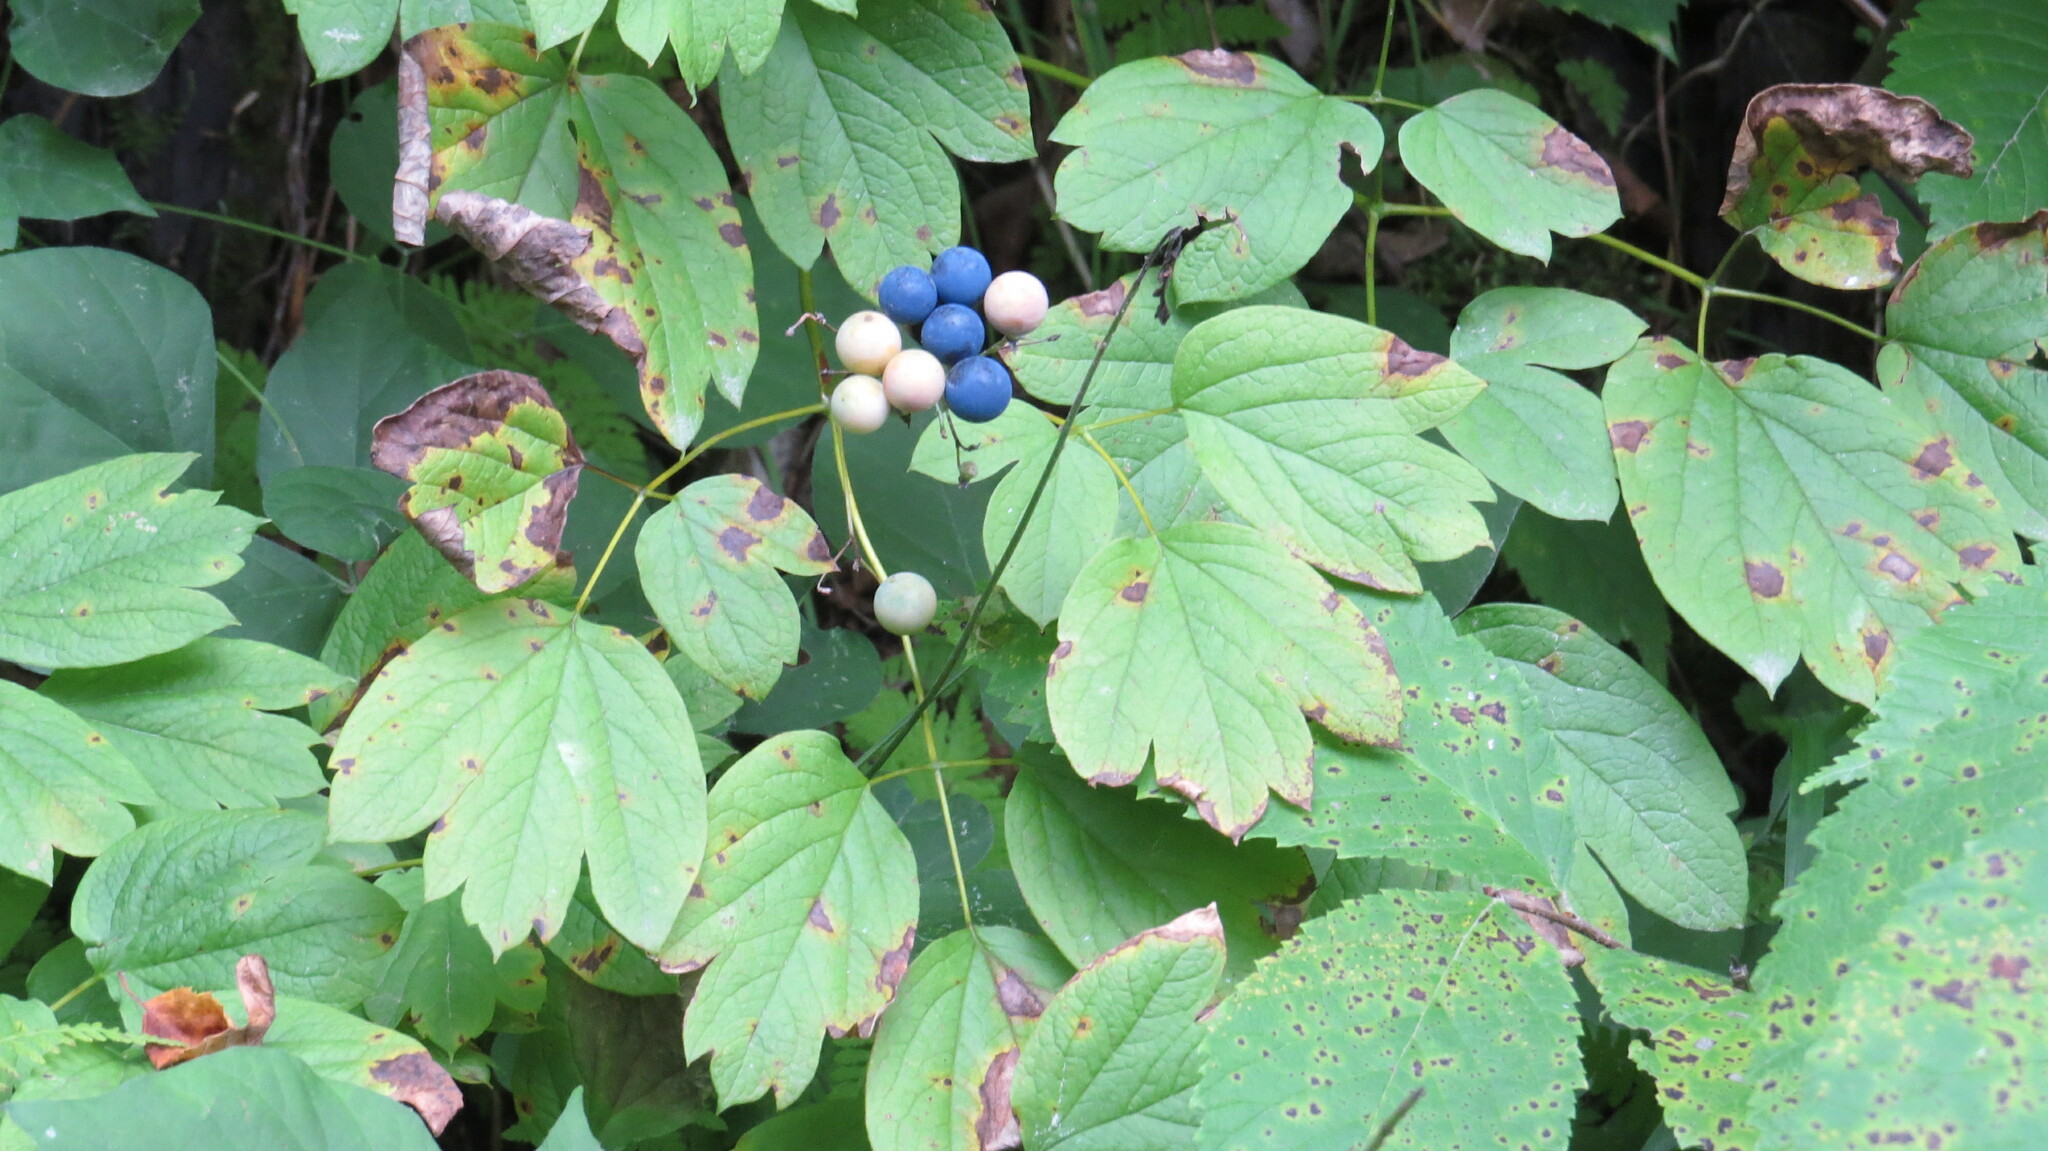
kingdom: Plantae
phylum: Tracheophyta
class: Magnoliopsida
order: Ranunculales
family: Berberidaceae
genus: Caulophyllum
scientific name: Caulophyllum thalictroides
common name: Blue cohosh
